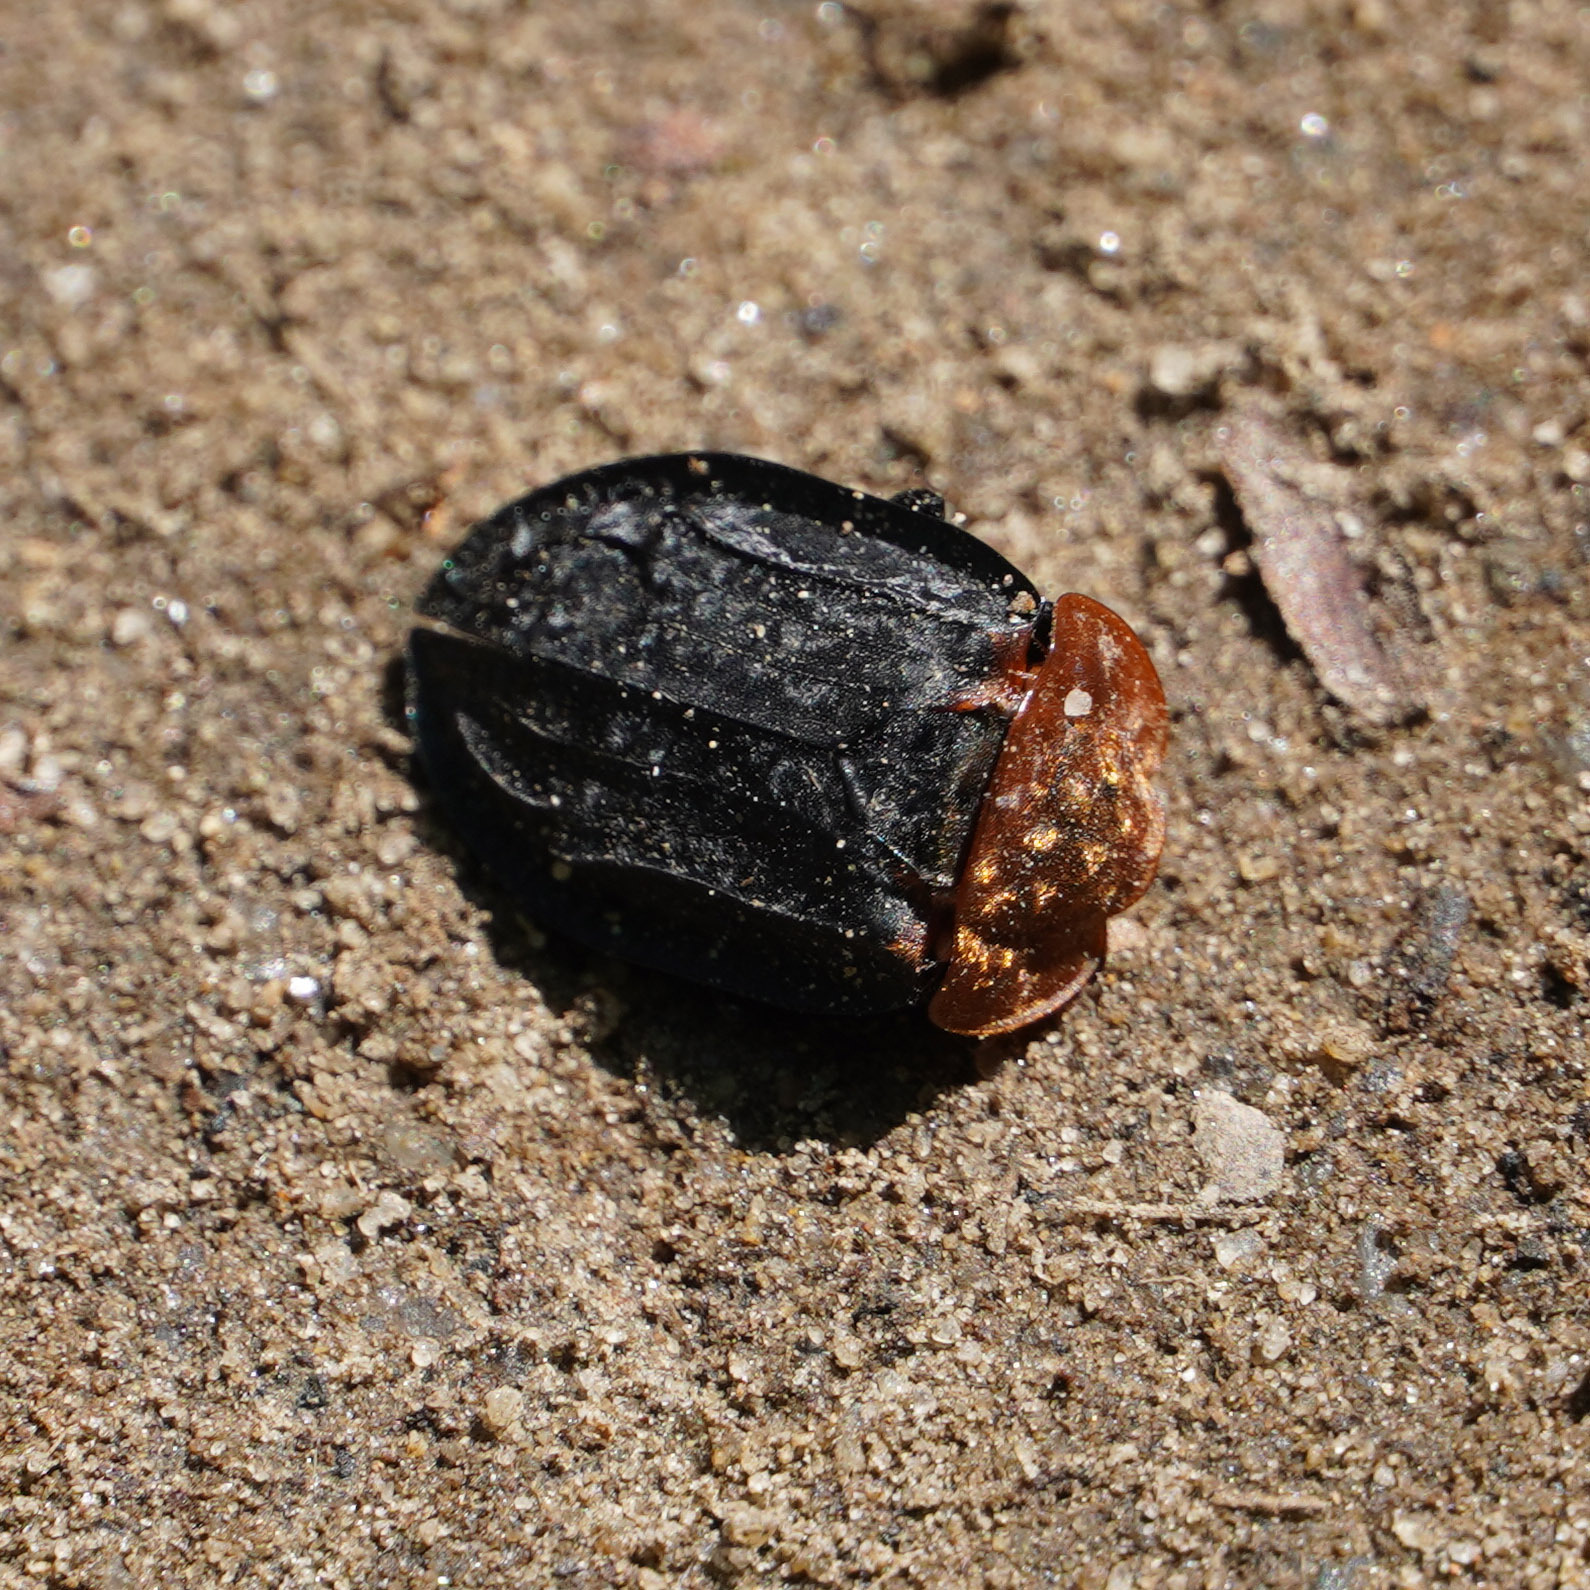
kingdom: Animalia
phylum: Arthropoda
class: Insecta
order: Coleoptera
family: Staphylinidae
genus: Oiceoptoma
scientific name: Oiceoptoma thoracicum
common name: Red-breasted carrion beetle
